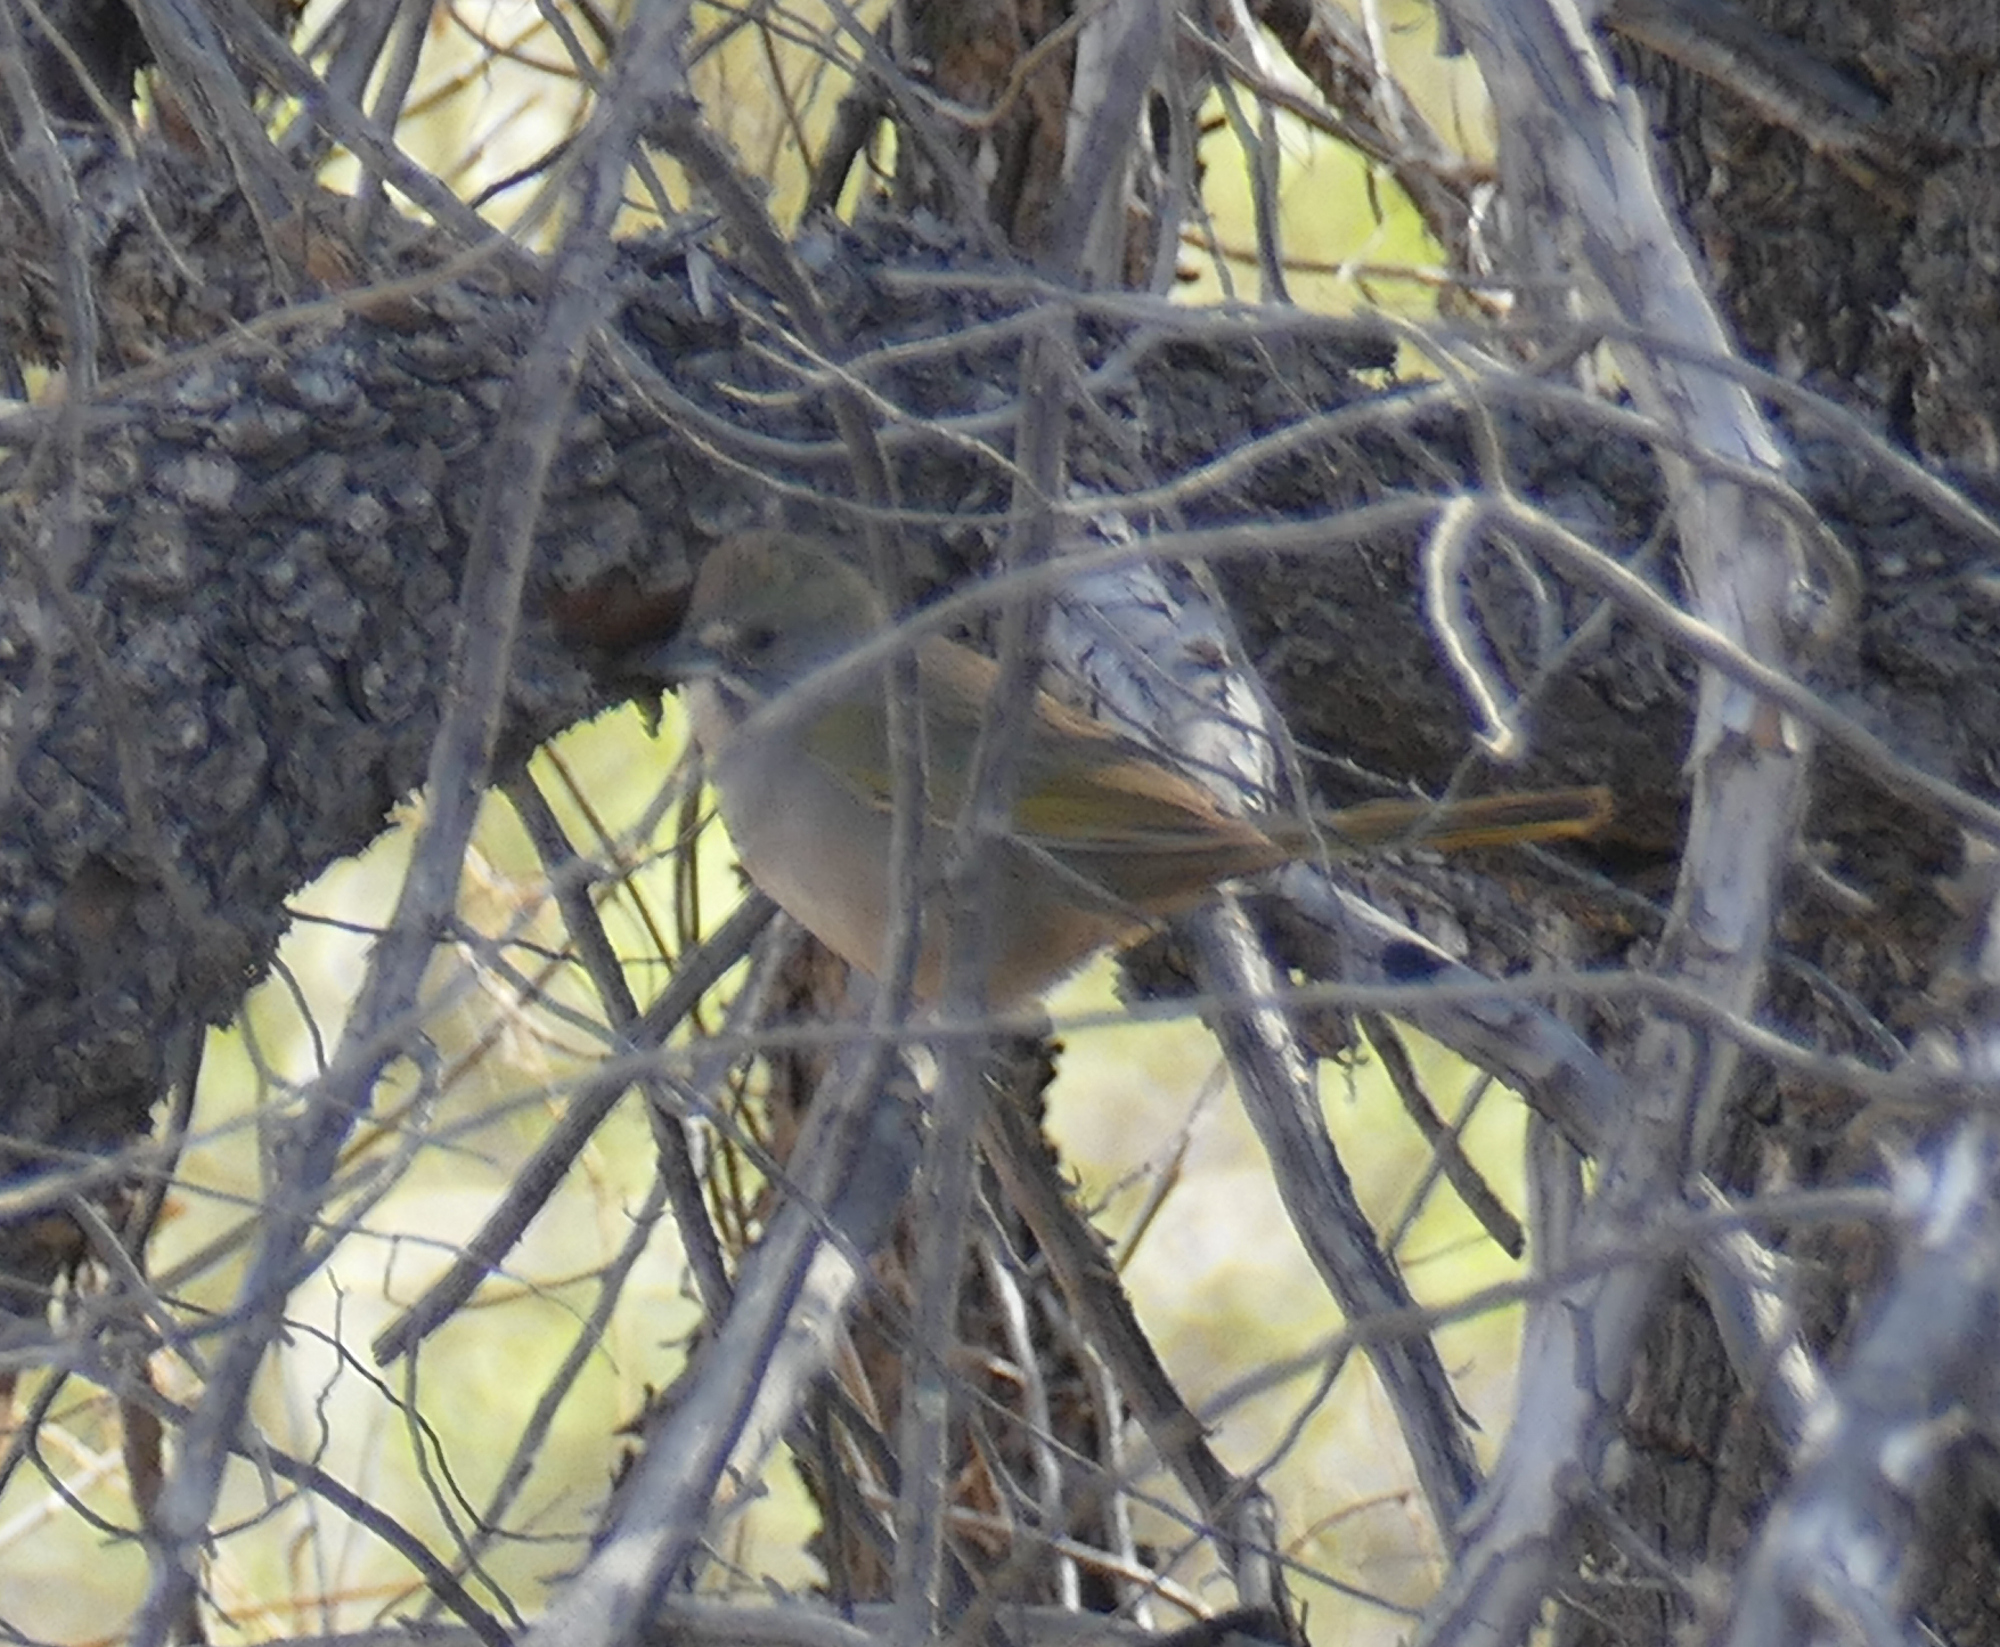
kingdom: Animalia
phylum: Chordata
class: Aves
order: Passeriformes
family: Passerellidae
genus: Pipilo
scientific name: Pipilo chlorurus
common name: Green-tailed towhee
